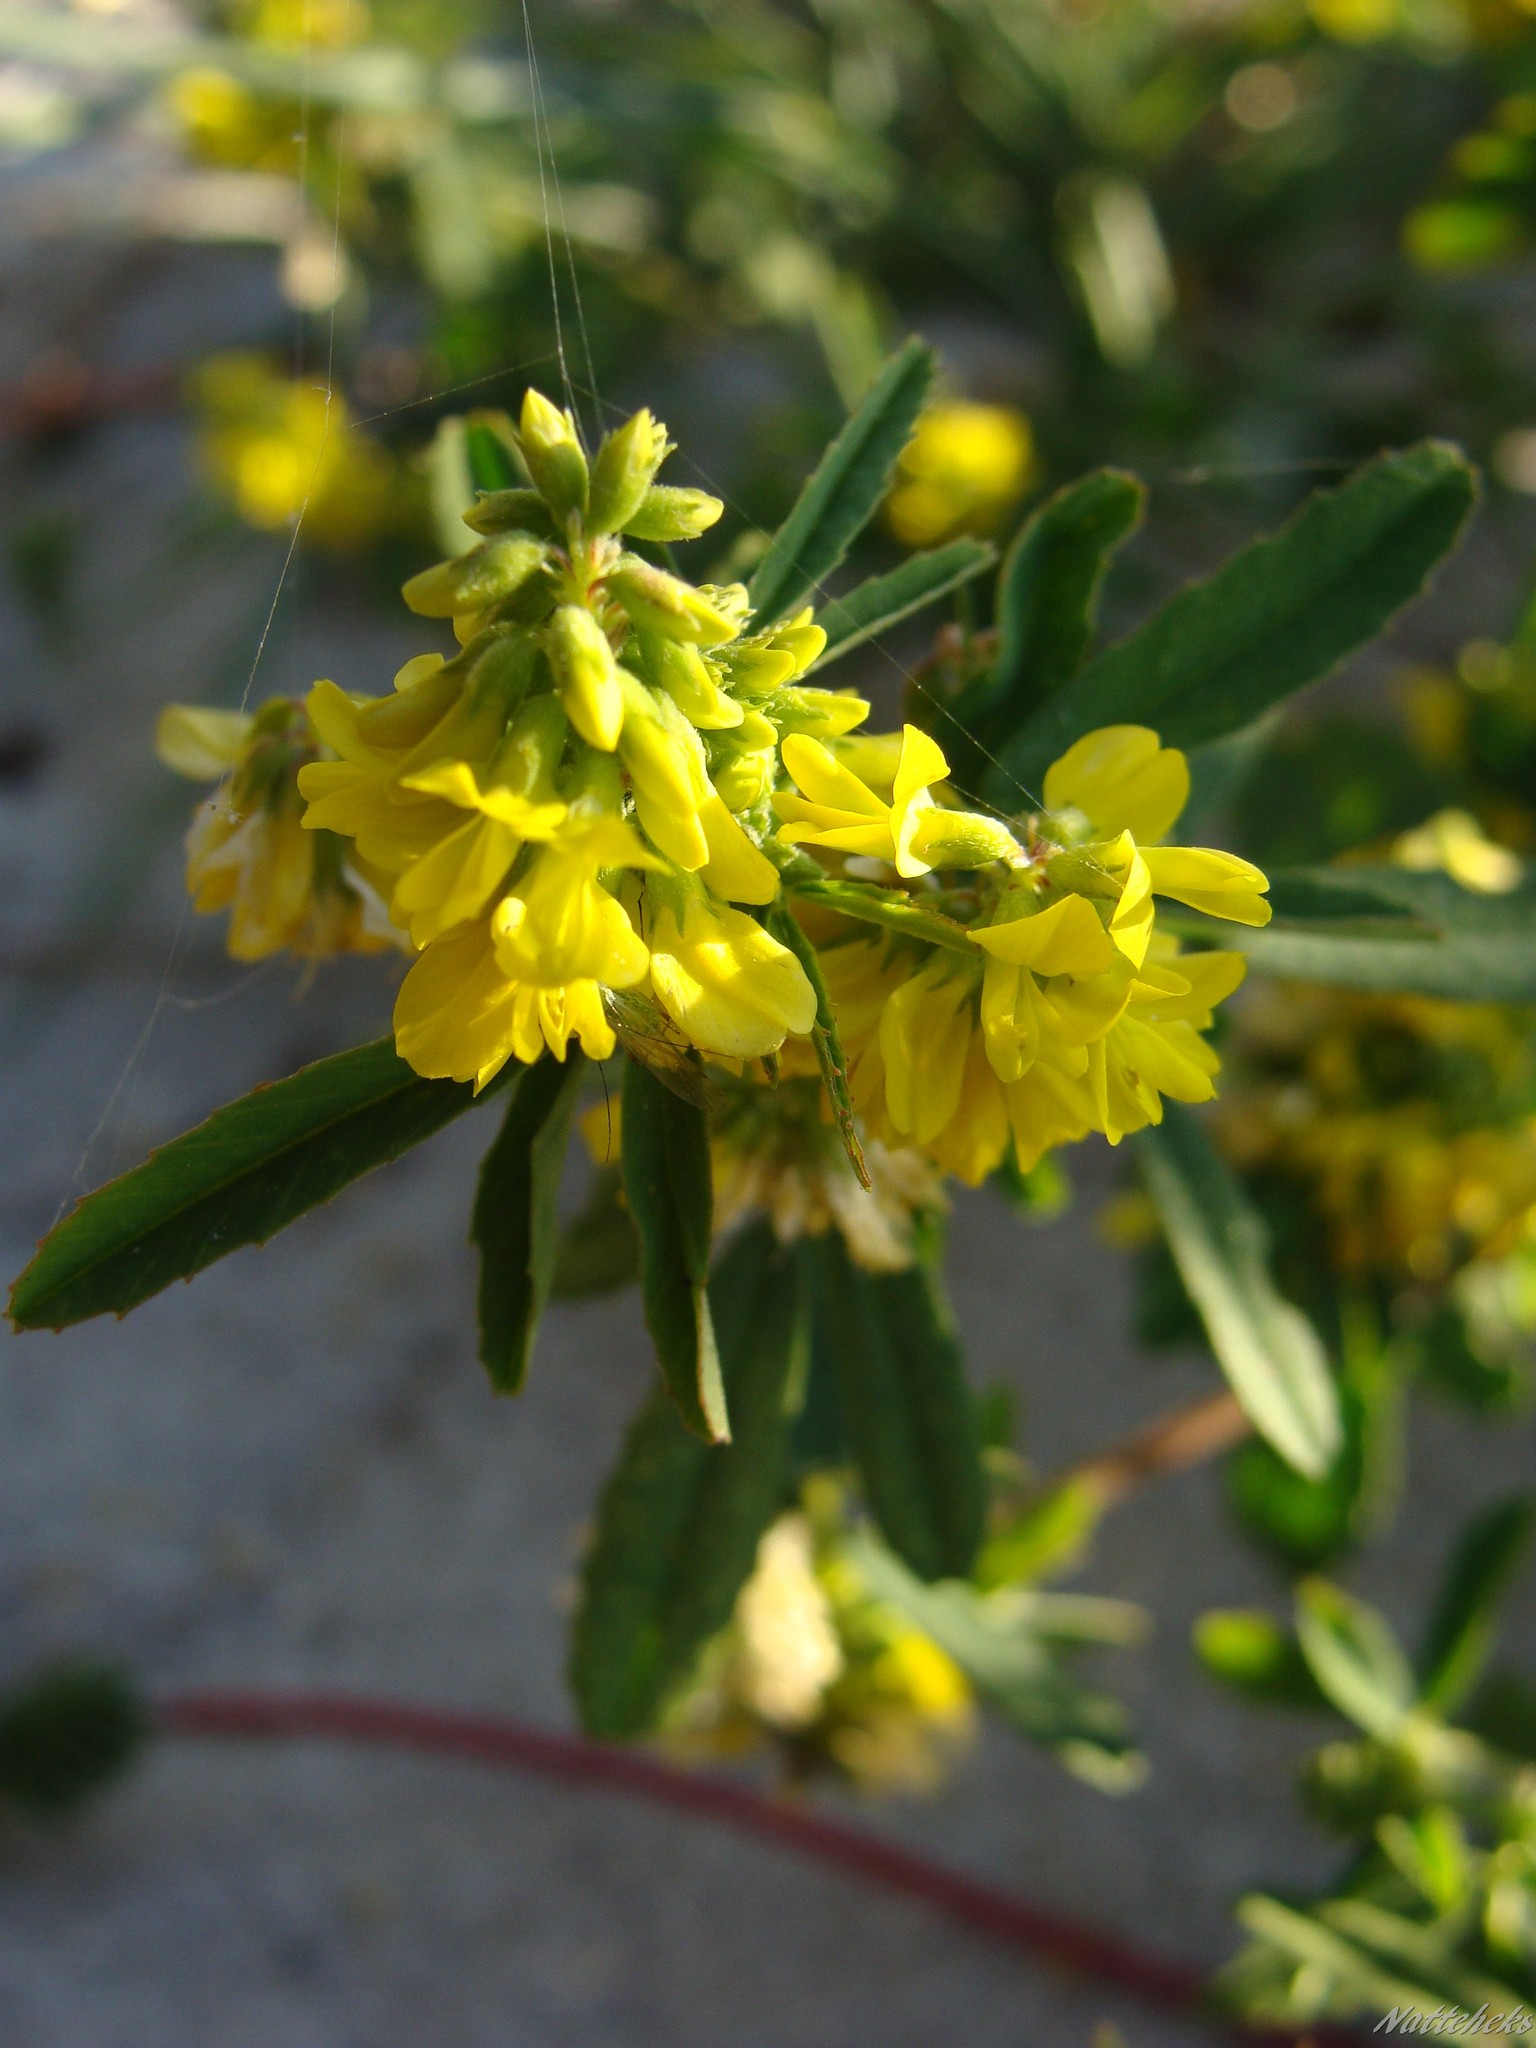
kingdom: Plantae
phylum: Tracheophyta
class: Magnoliopsida
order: Fabales
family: Fabaceae
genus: Melilotus
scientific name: Melilotus officinalis
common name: Sweetclover
